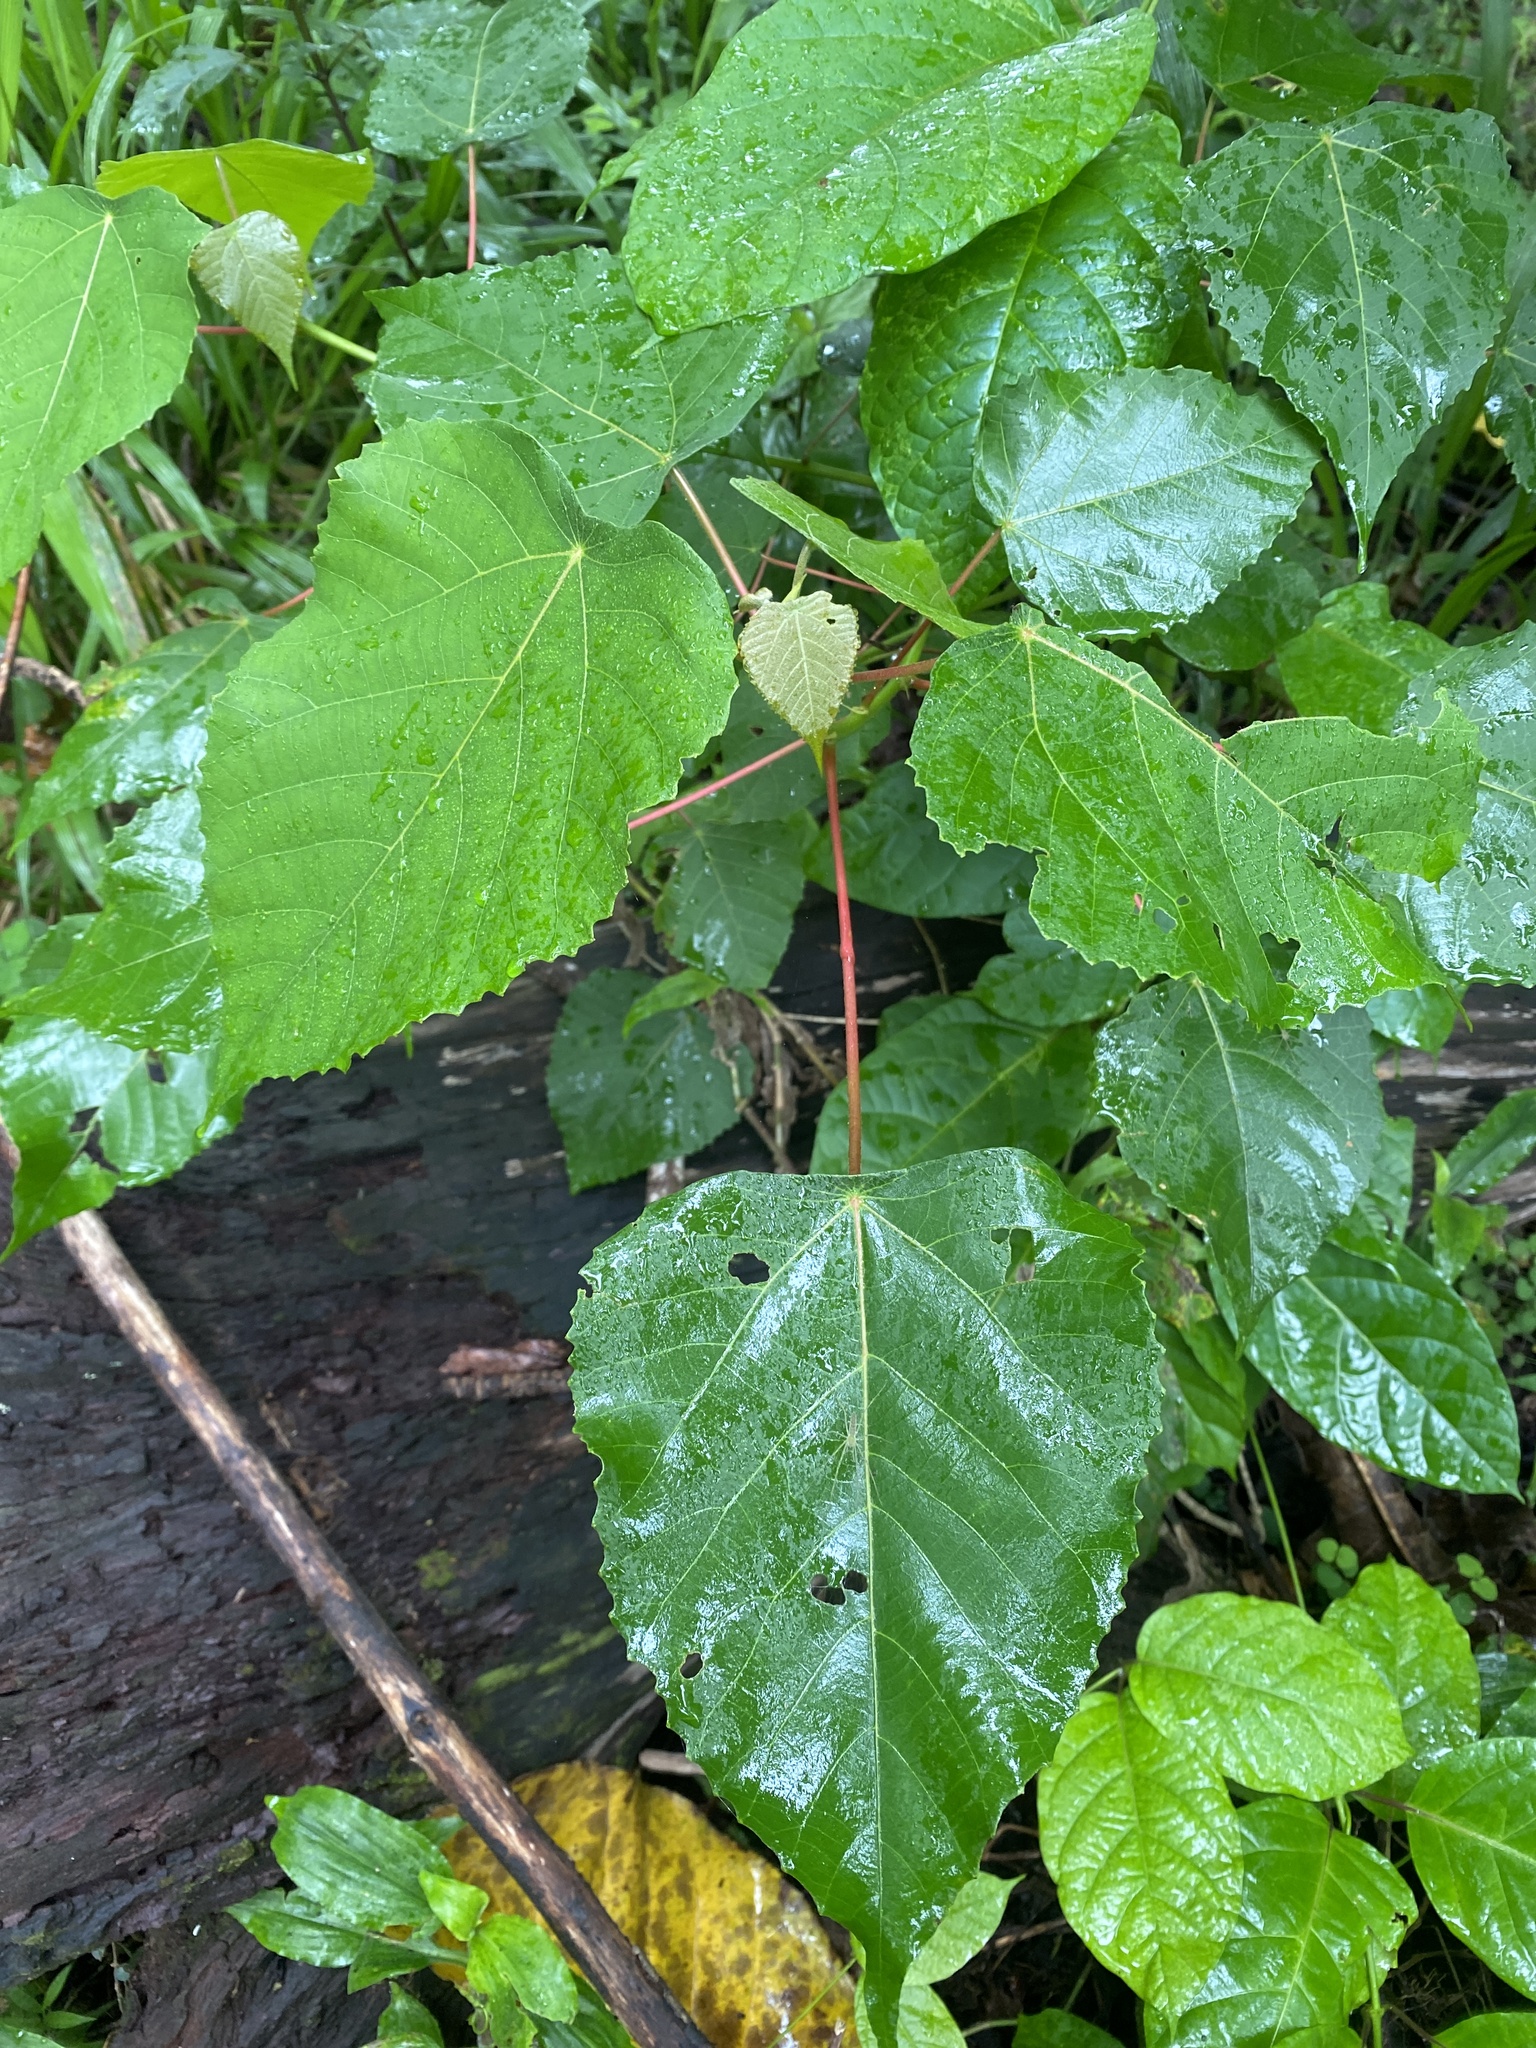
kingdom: Plantae
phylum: Tracheophyta
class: Magnoliopsida
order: Malpighiales
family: Euphorbiaceae
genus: Macaranga
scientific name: Macaranga capensis
